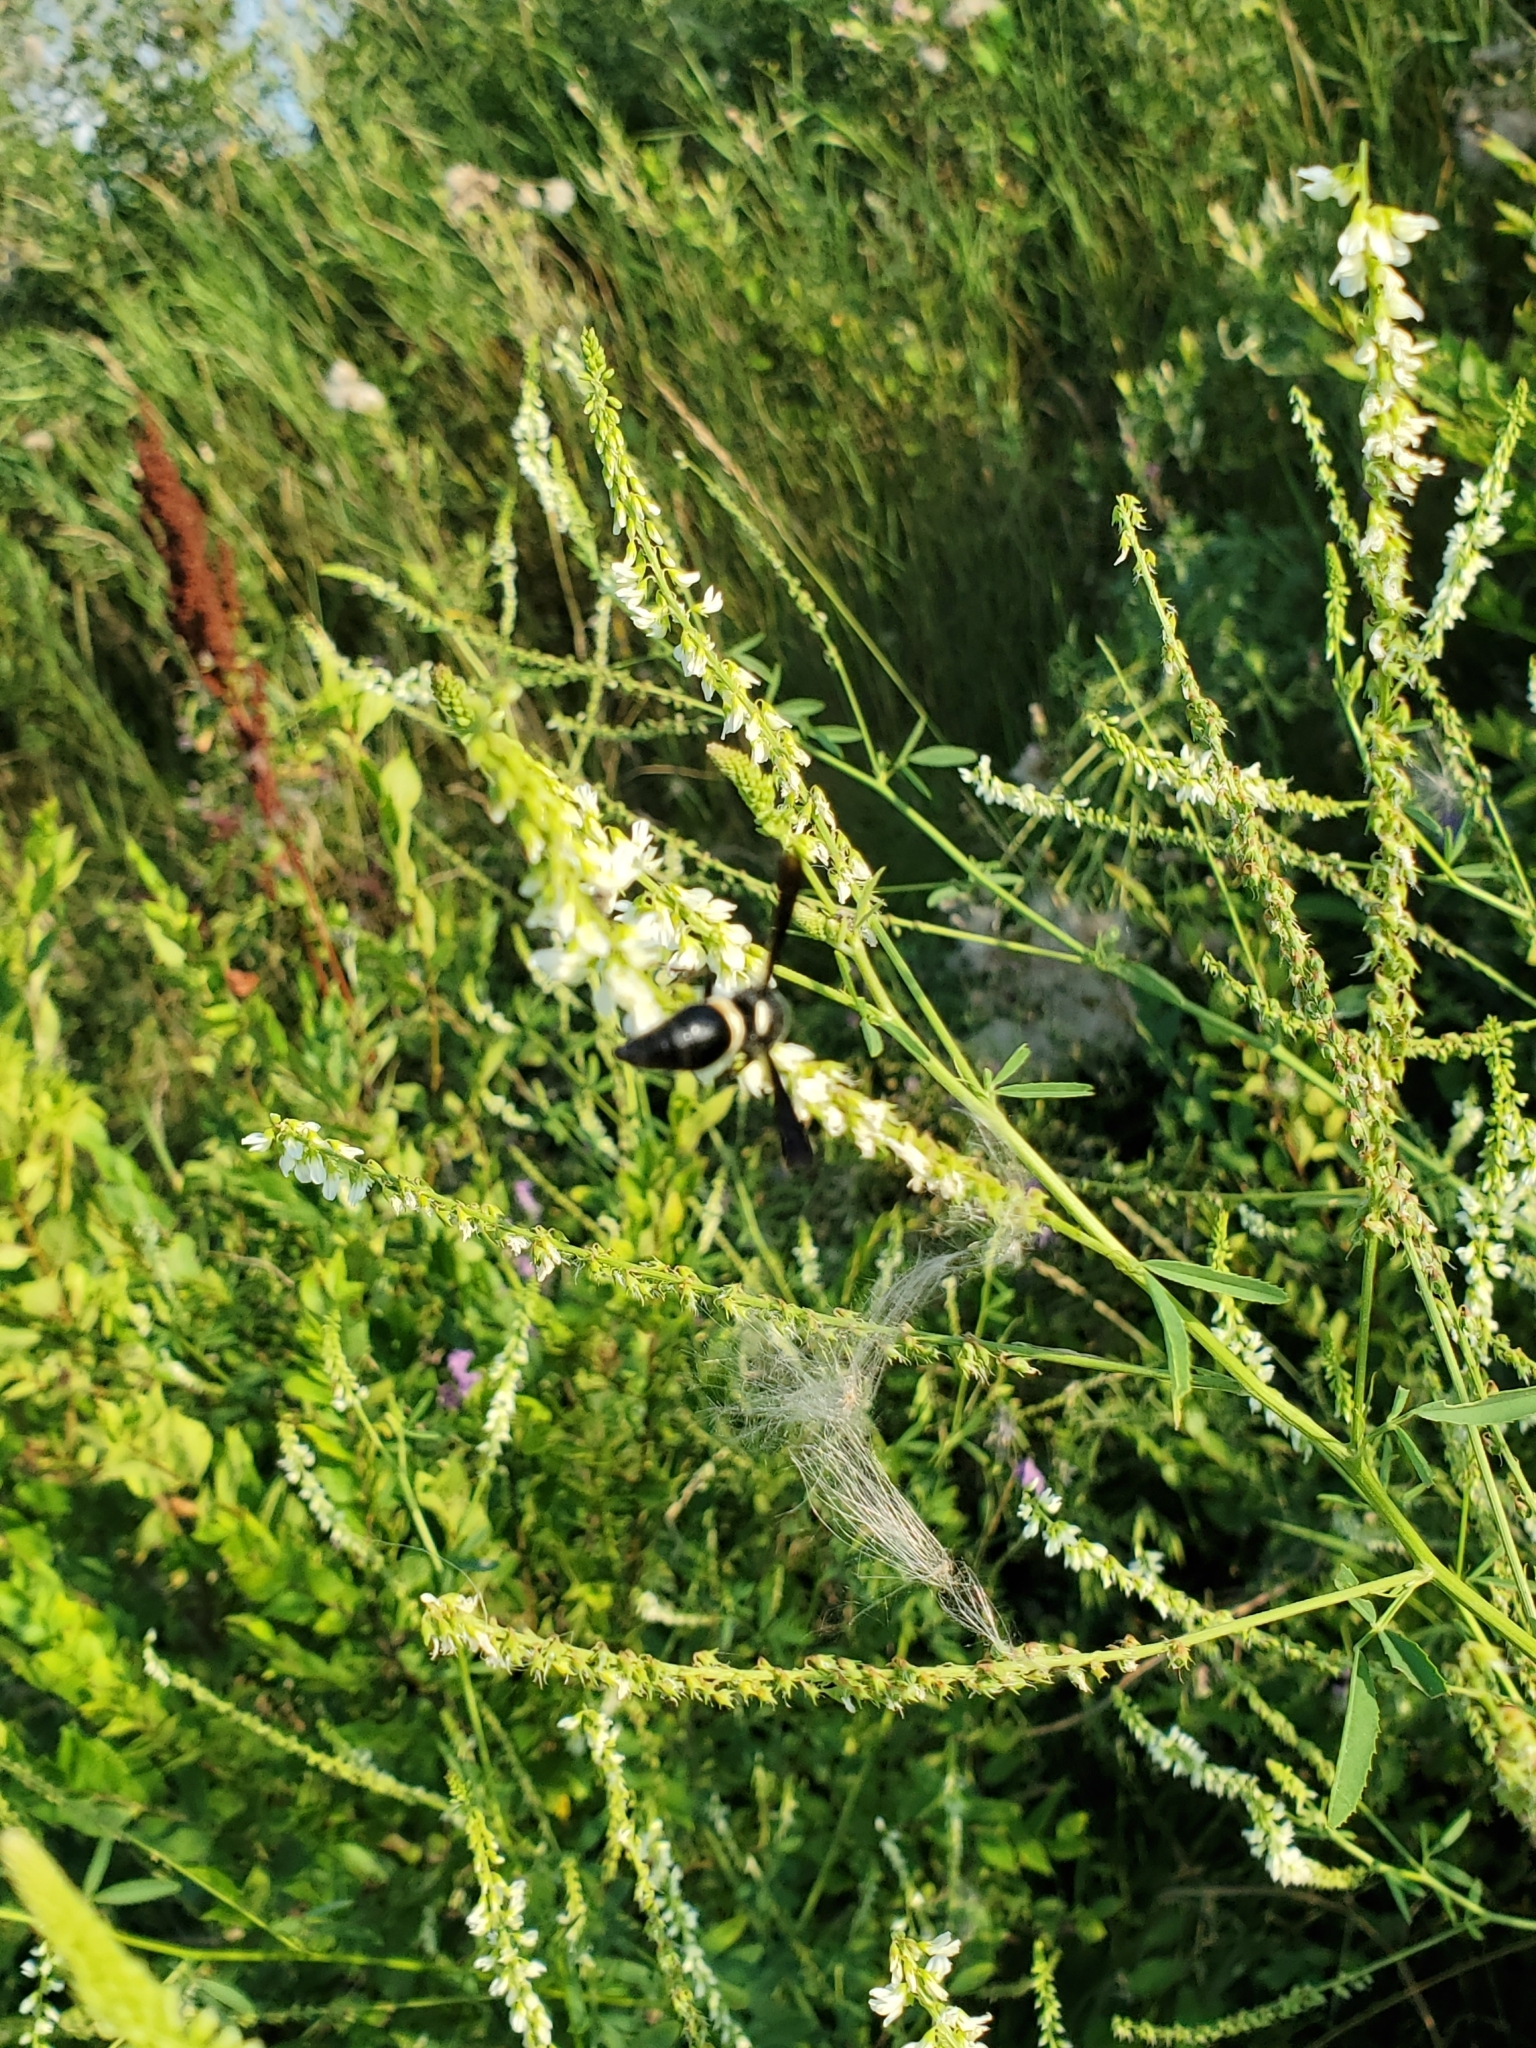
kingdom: Animalia
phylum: Arthropoda
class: Insecta
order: Hymenoptera
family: Eumenidae
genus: Monobia
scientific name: Monobia quadridens
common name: Four-toothed mason wasp
